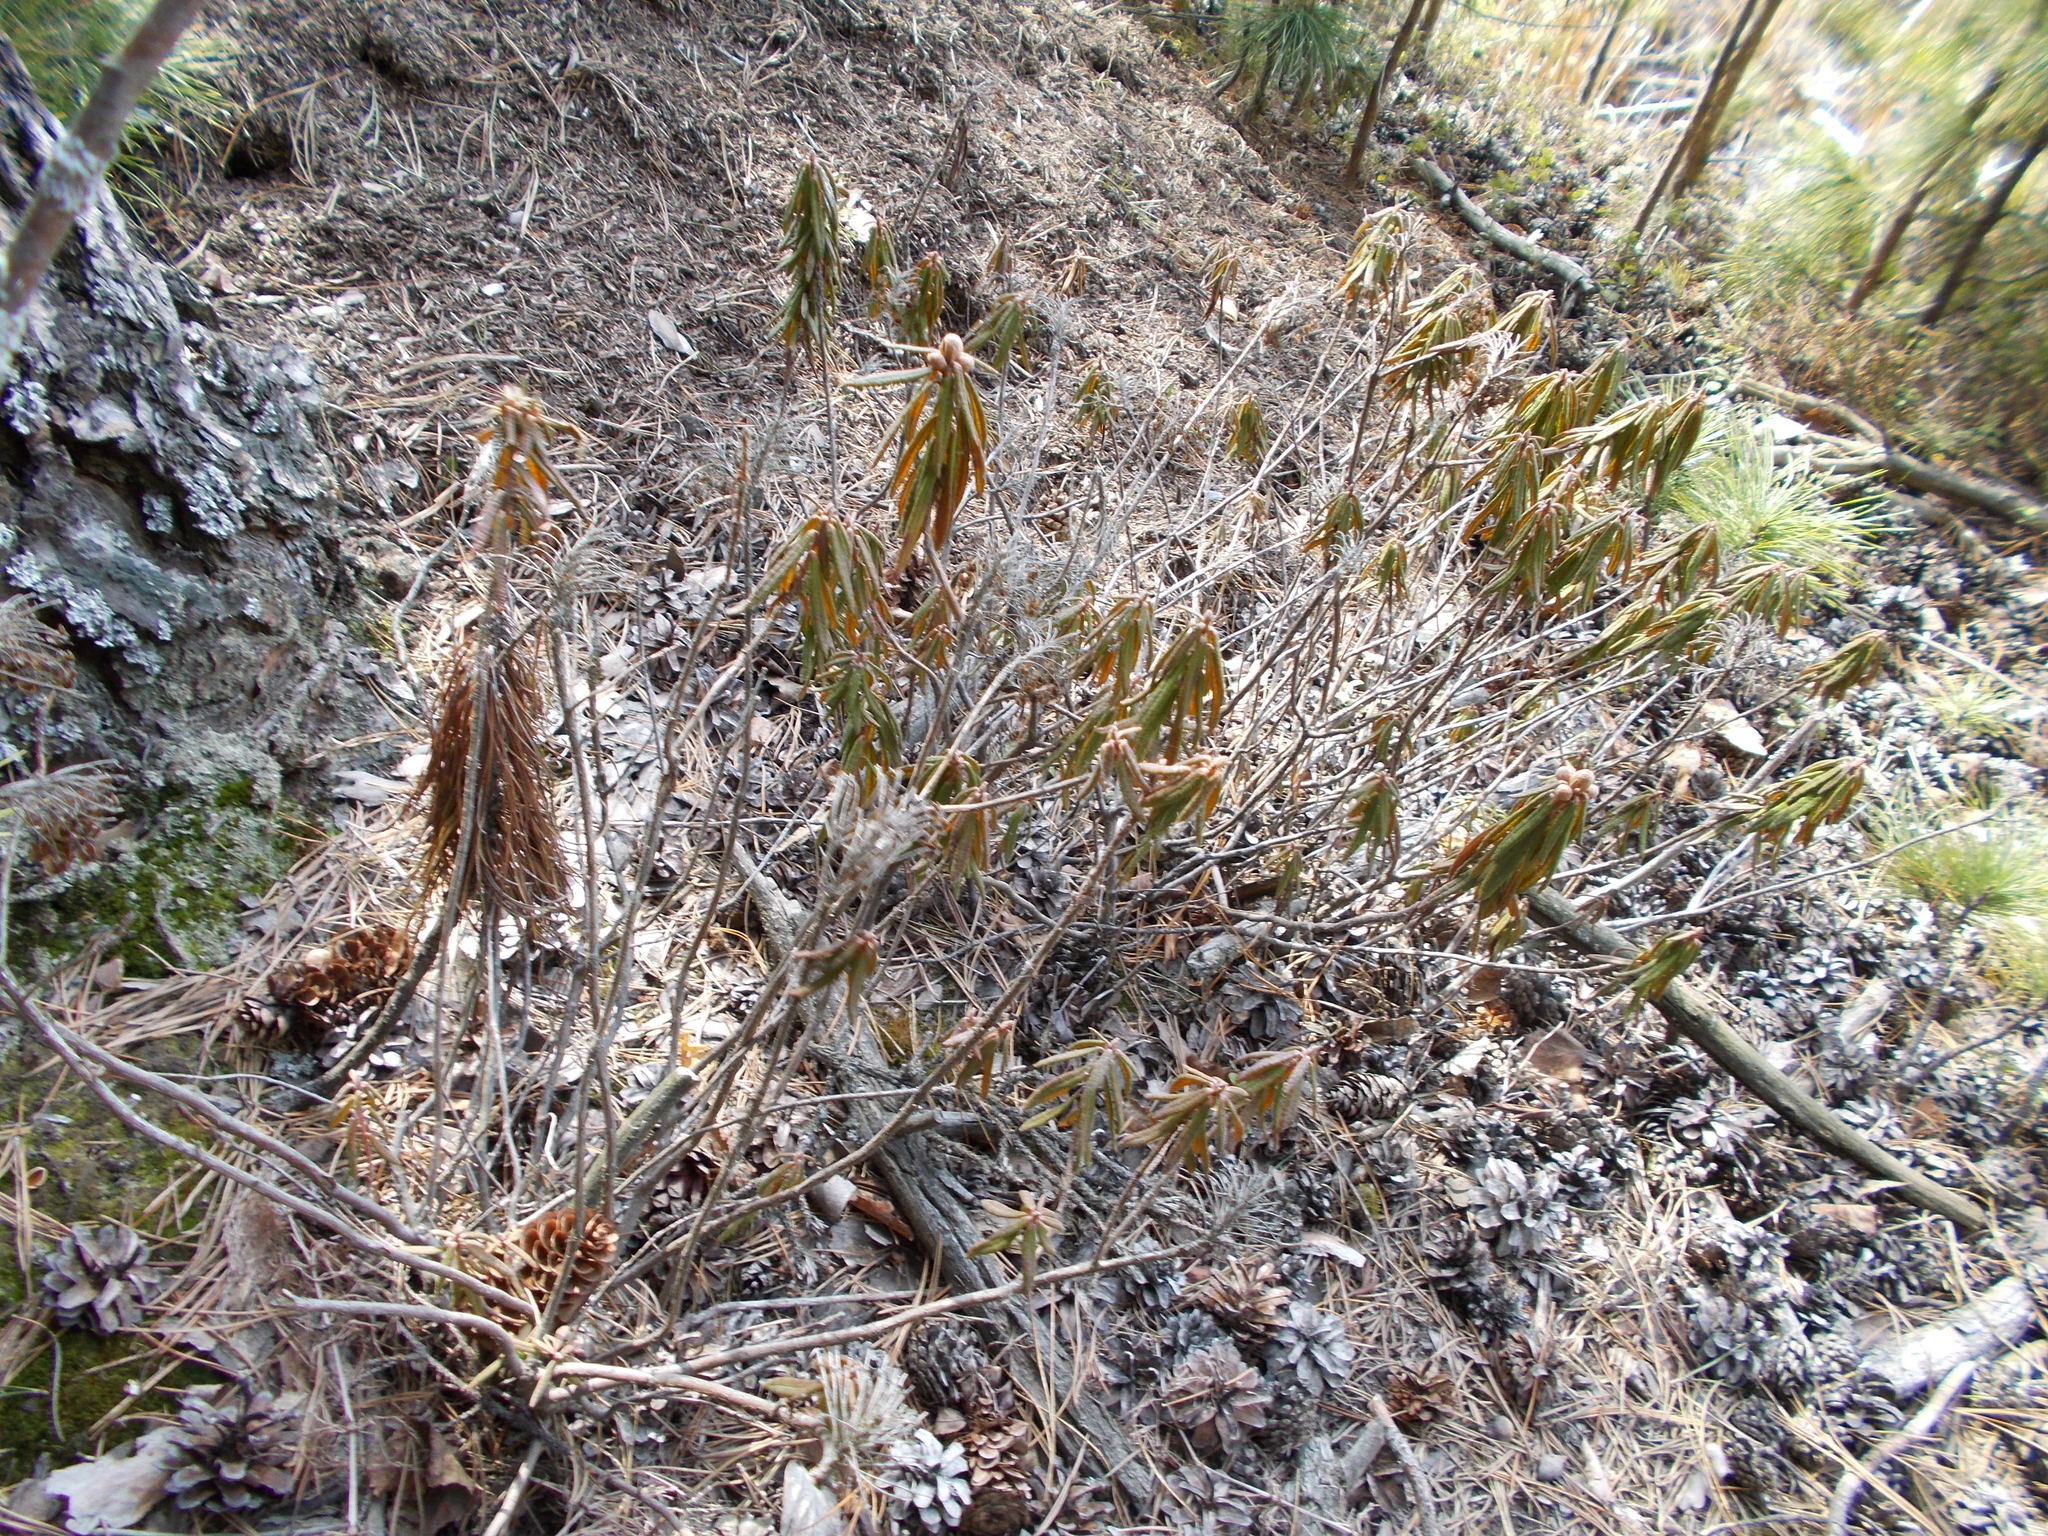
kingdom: Plantae
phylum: Tracheophyta
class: Magnoliopsida
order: Ericales
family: Ericaceae
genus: Rhododendron
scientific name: Rhododendron tomentosum
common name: Marsh labrador tea
